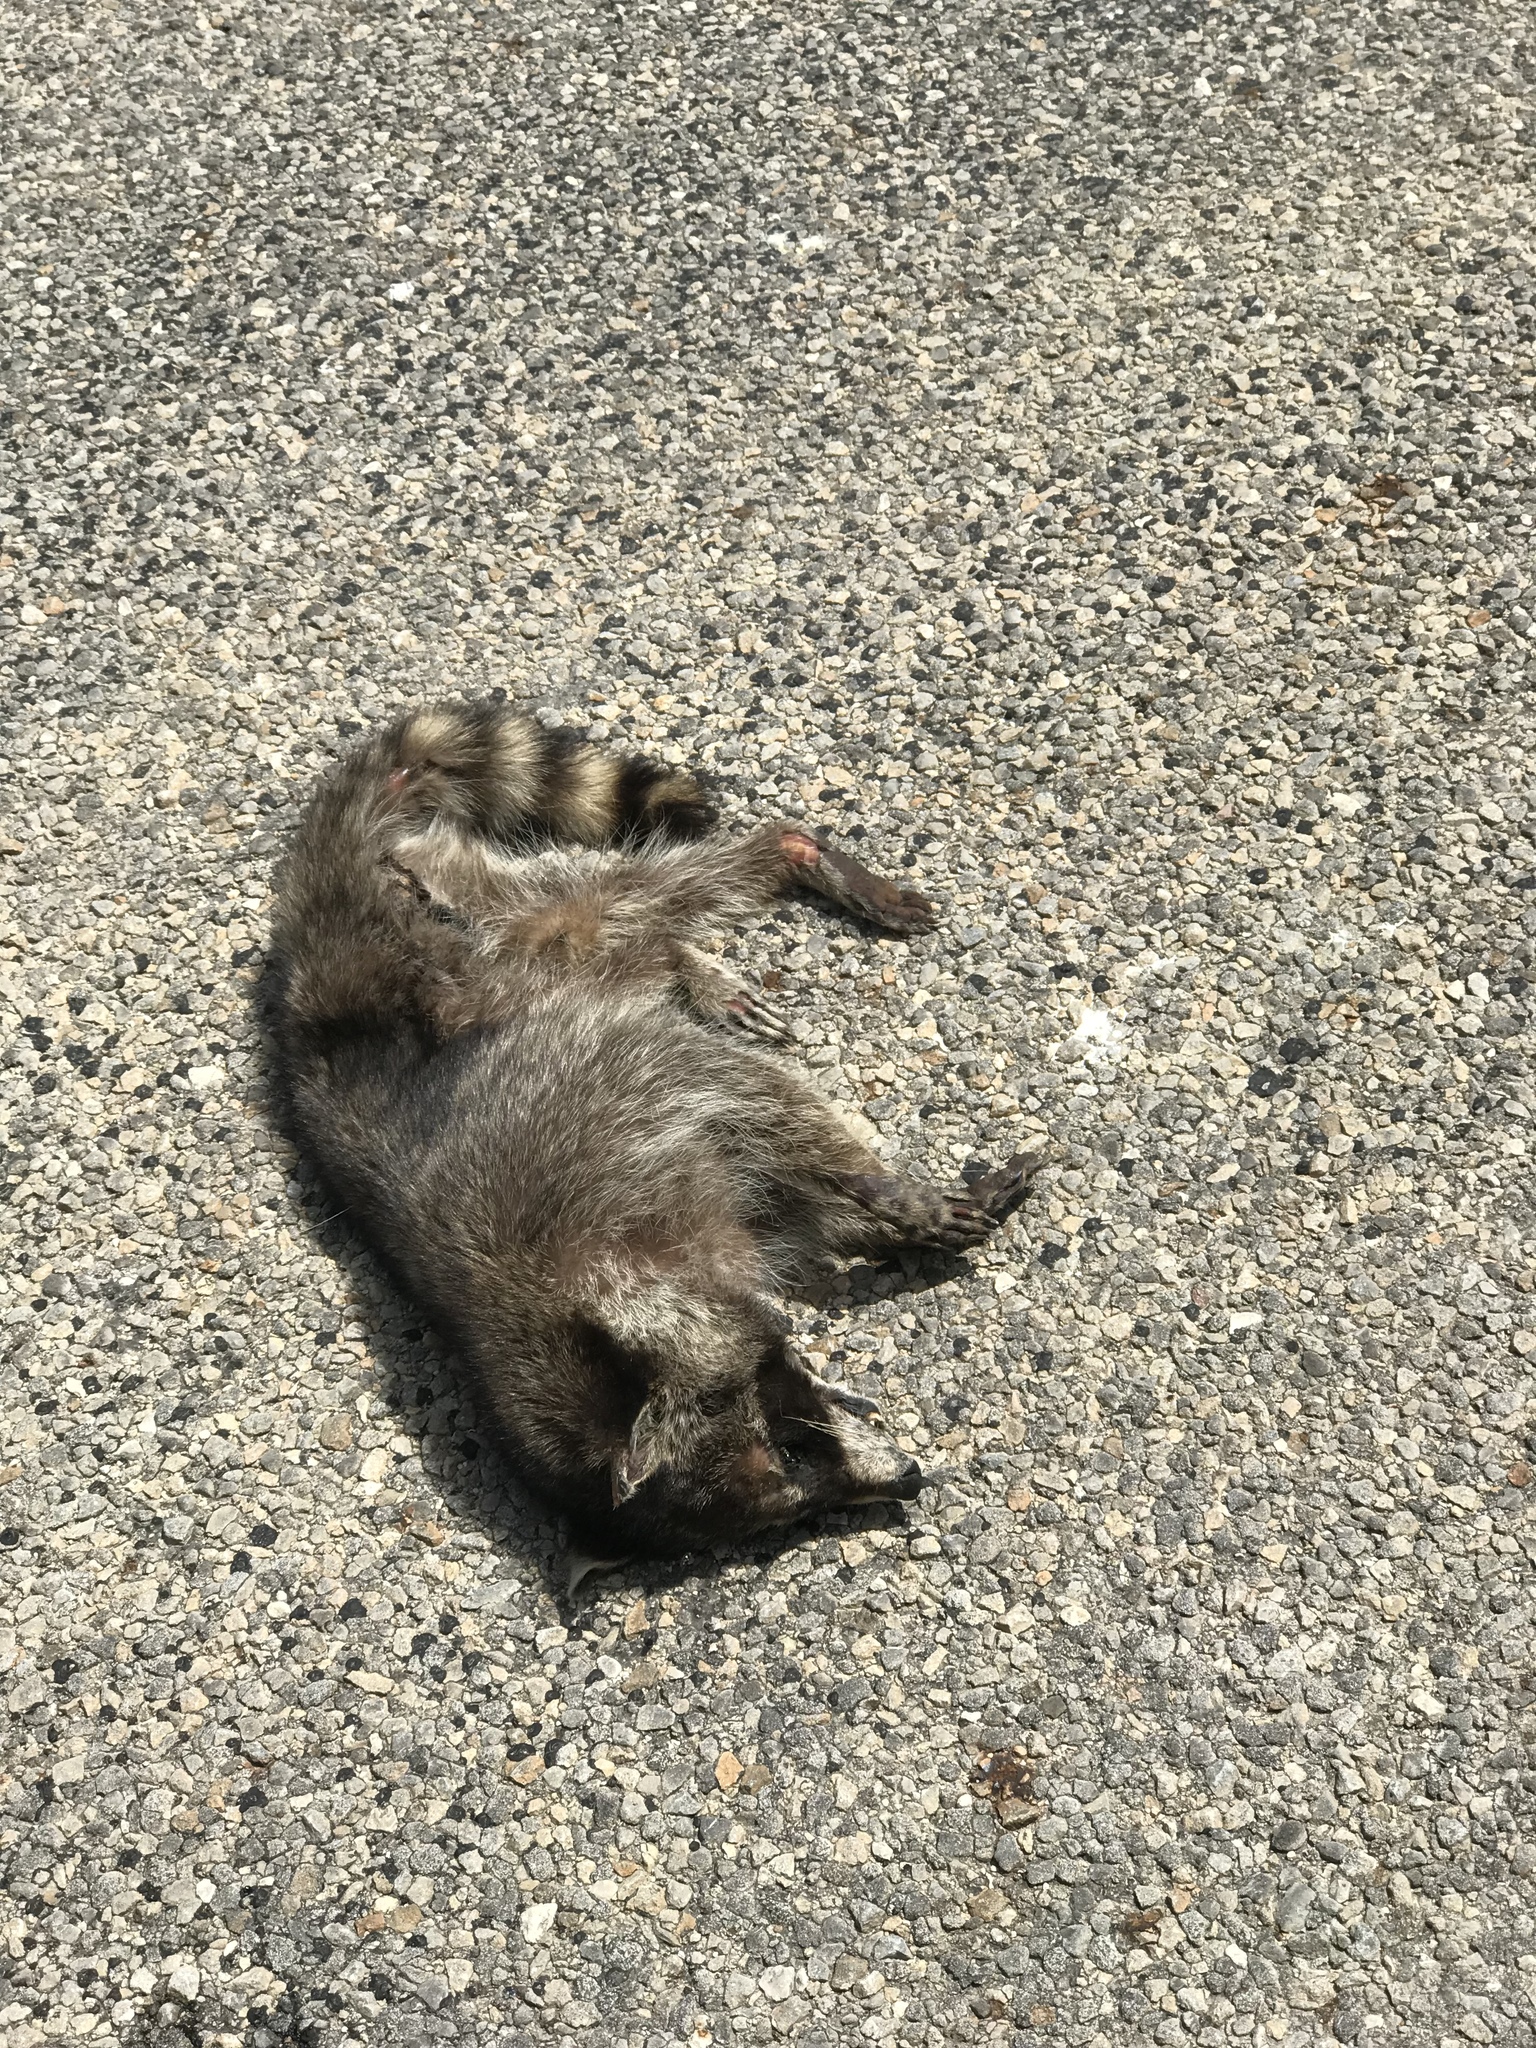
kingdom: Animalia
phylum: Chordata
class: Mammalia
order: Carnivora
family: Procyonidae
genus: Procyon
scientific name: Procyon lotor
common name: Raccoon
